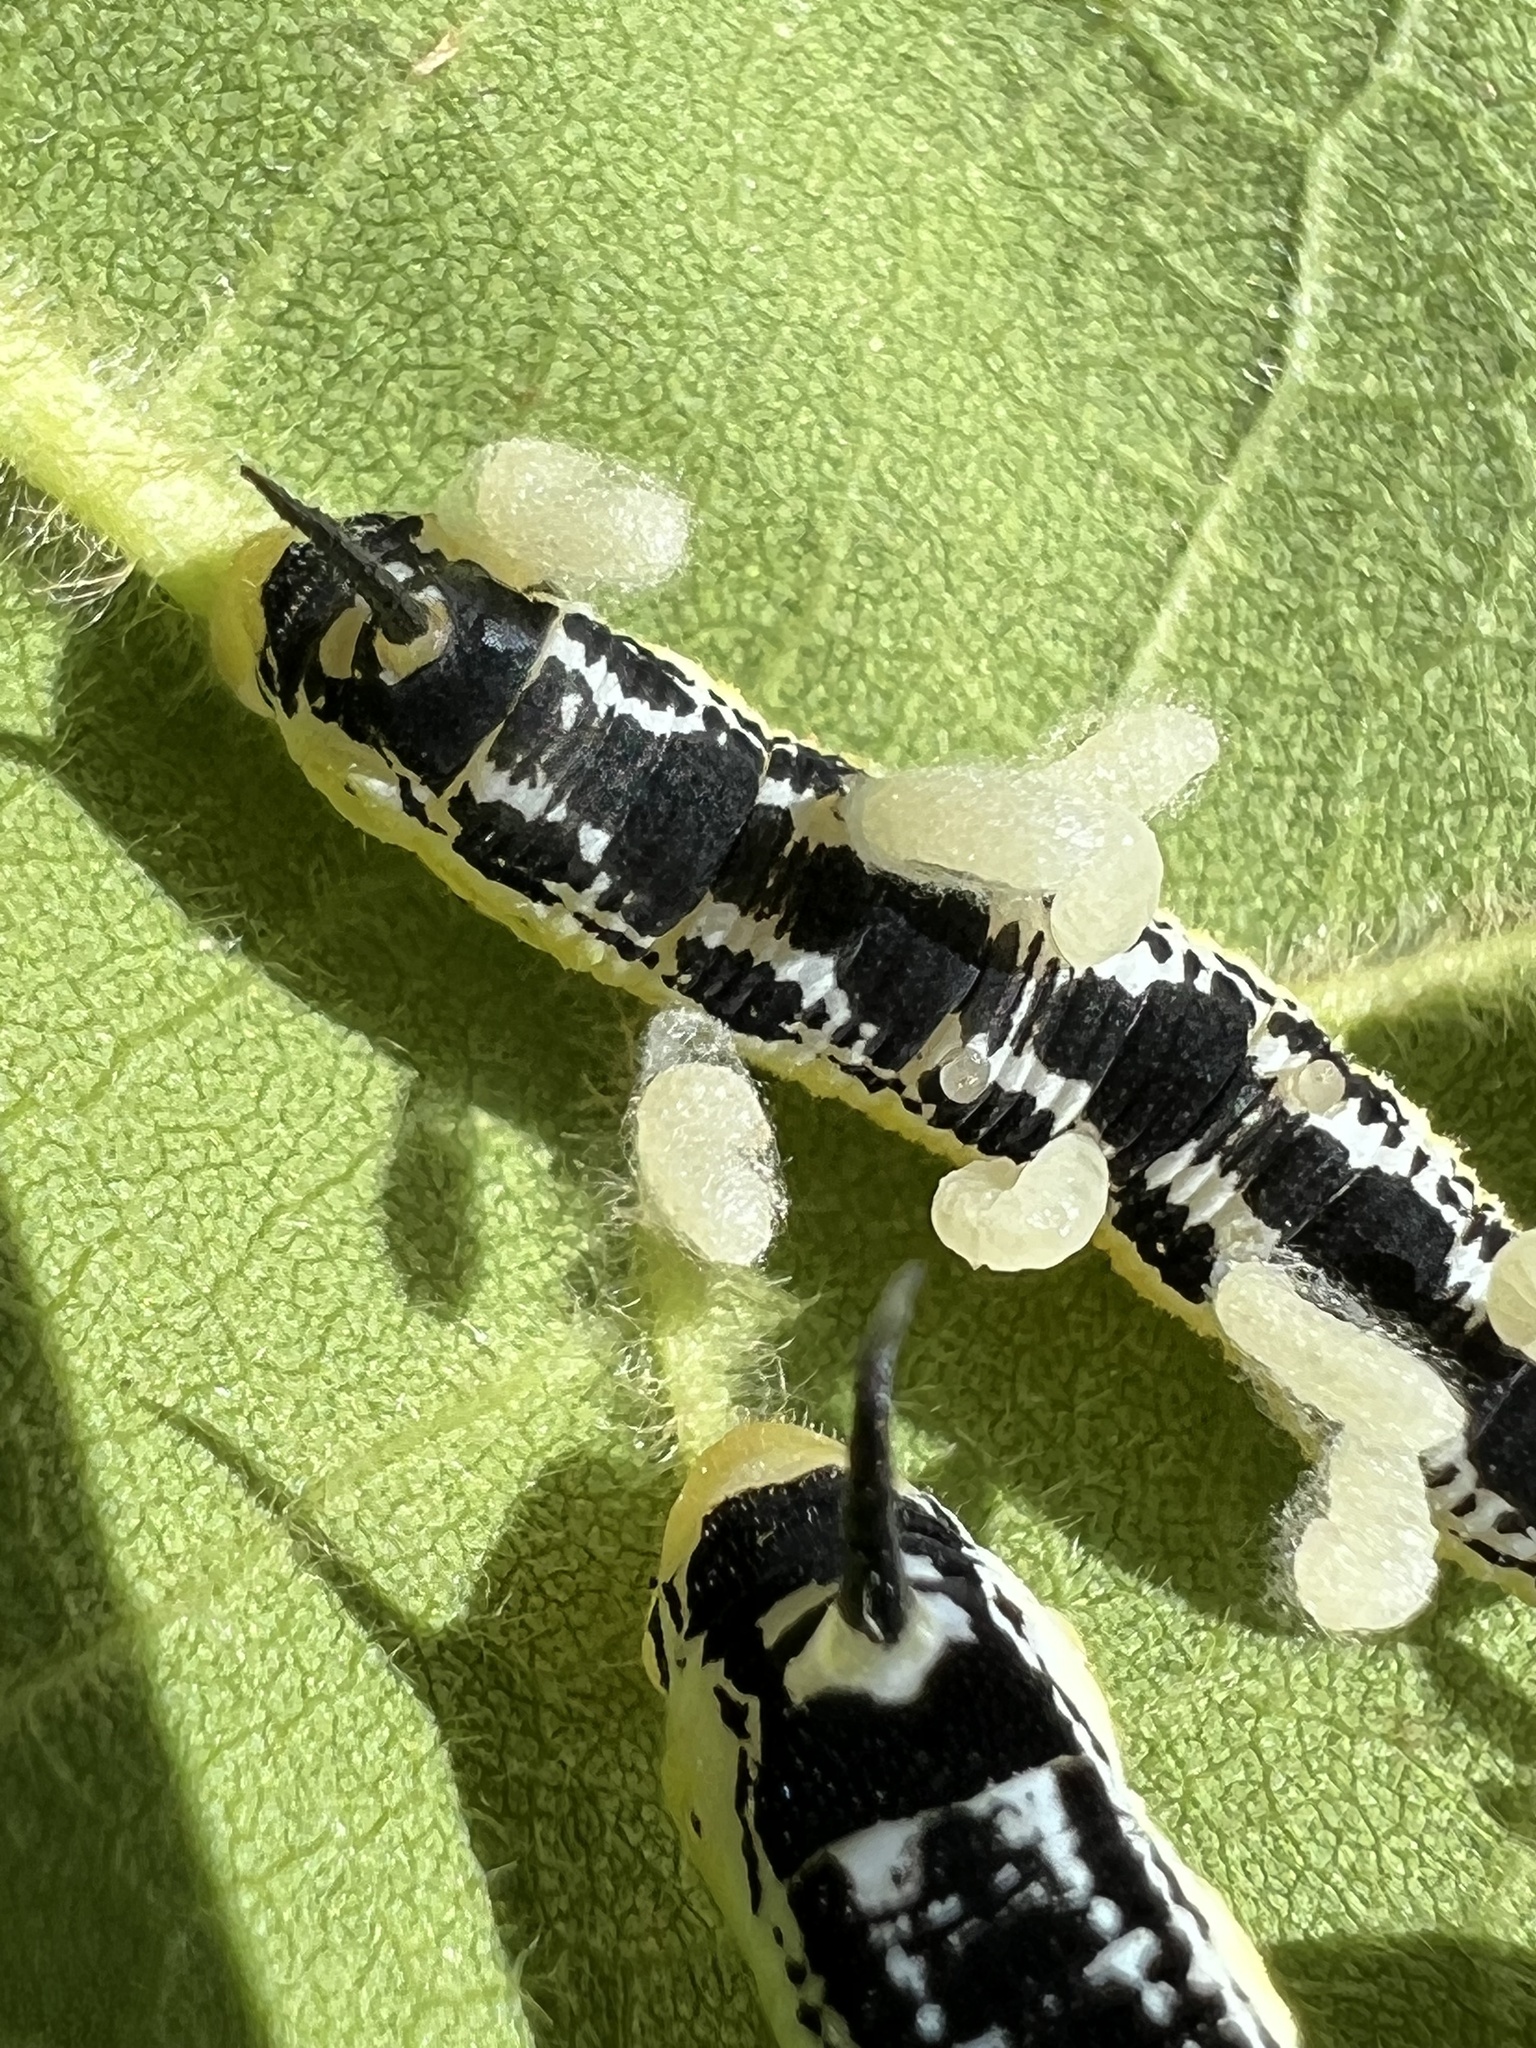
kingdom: Animalia
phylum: Arthropoda
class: Insecta
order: Lepidoptera
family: Sphingidae
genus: Ceratomia
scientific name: Ceratomia catalpae
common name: Catalpa hornworm
